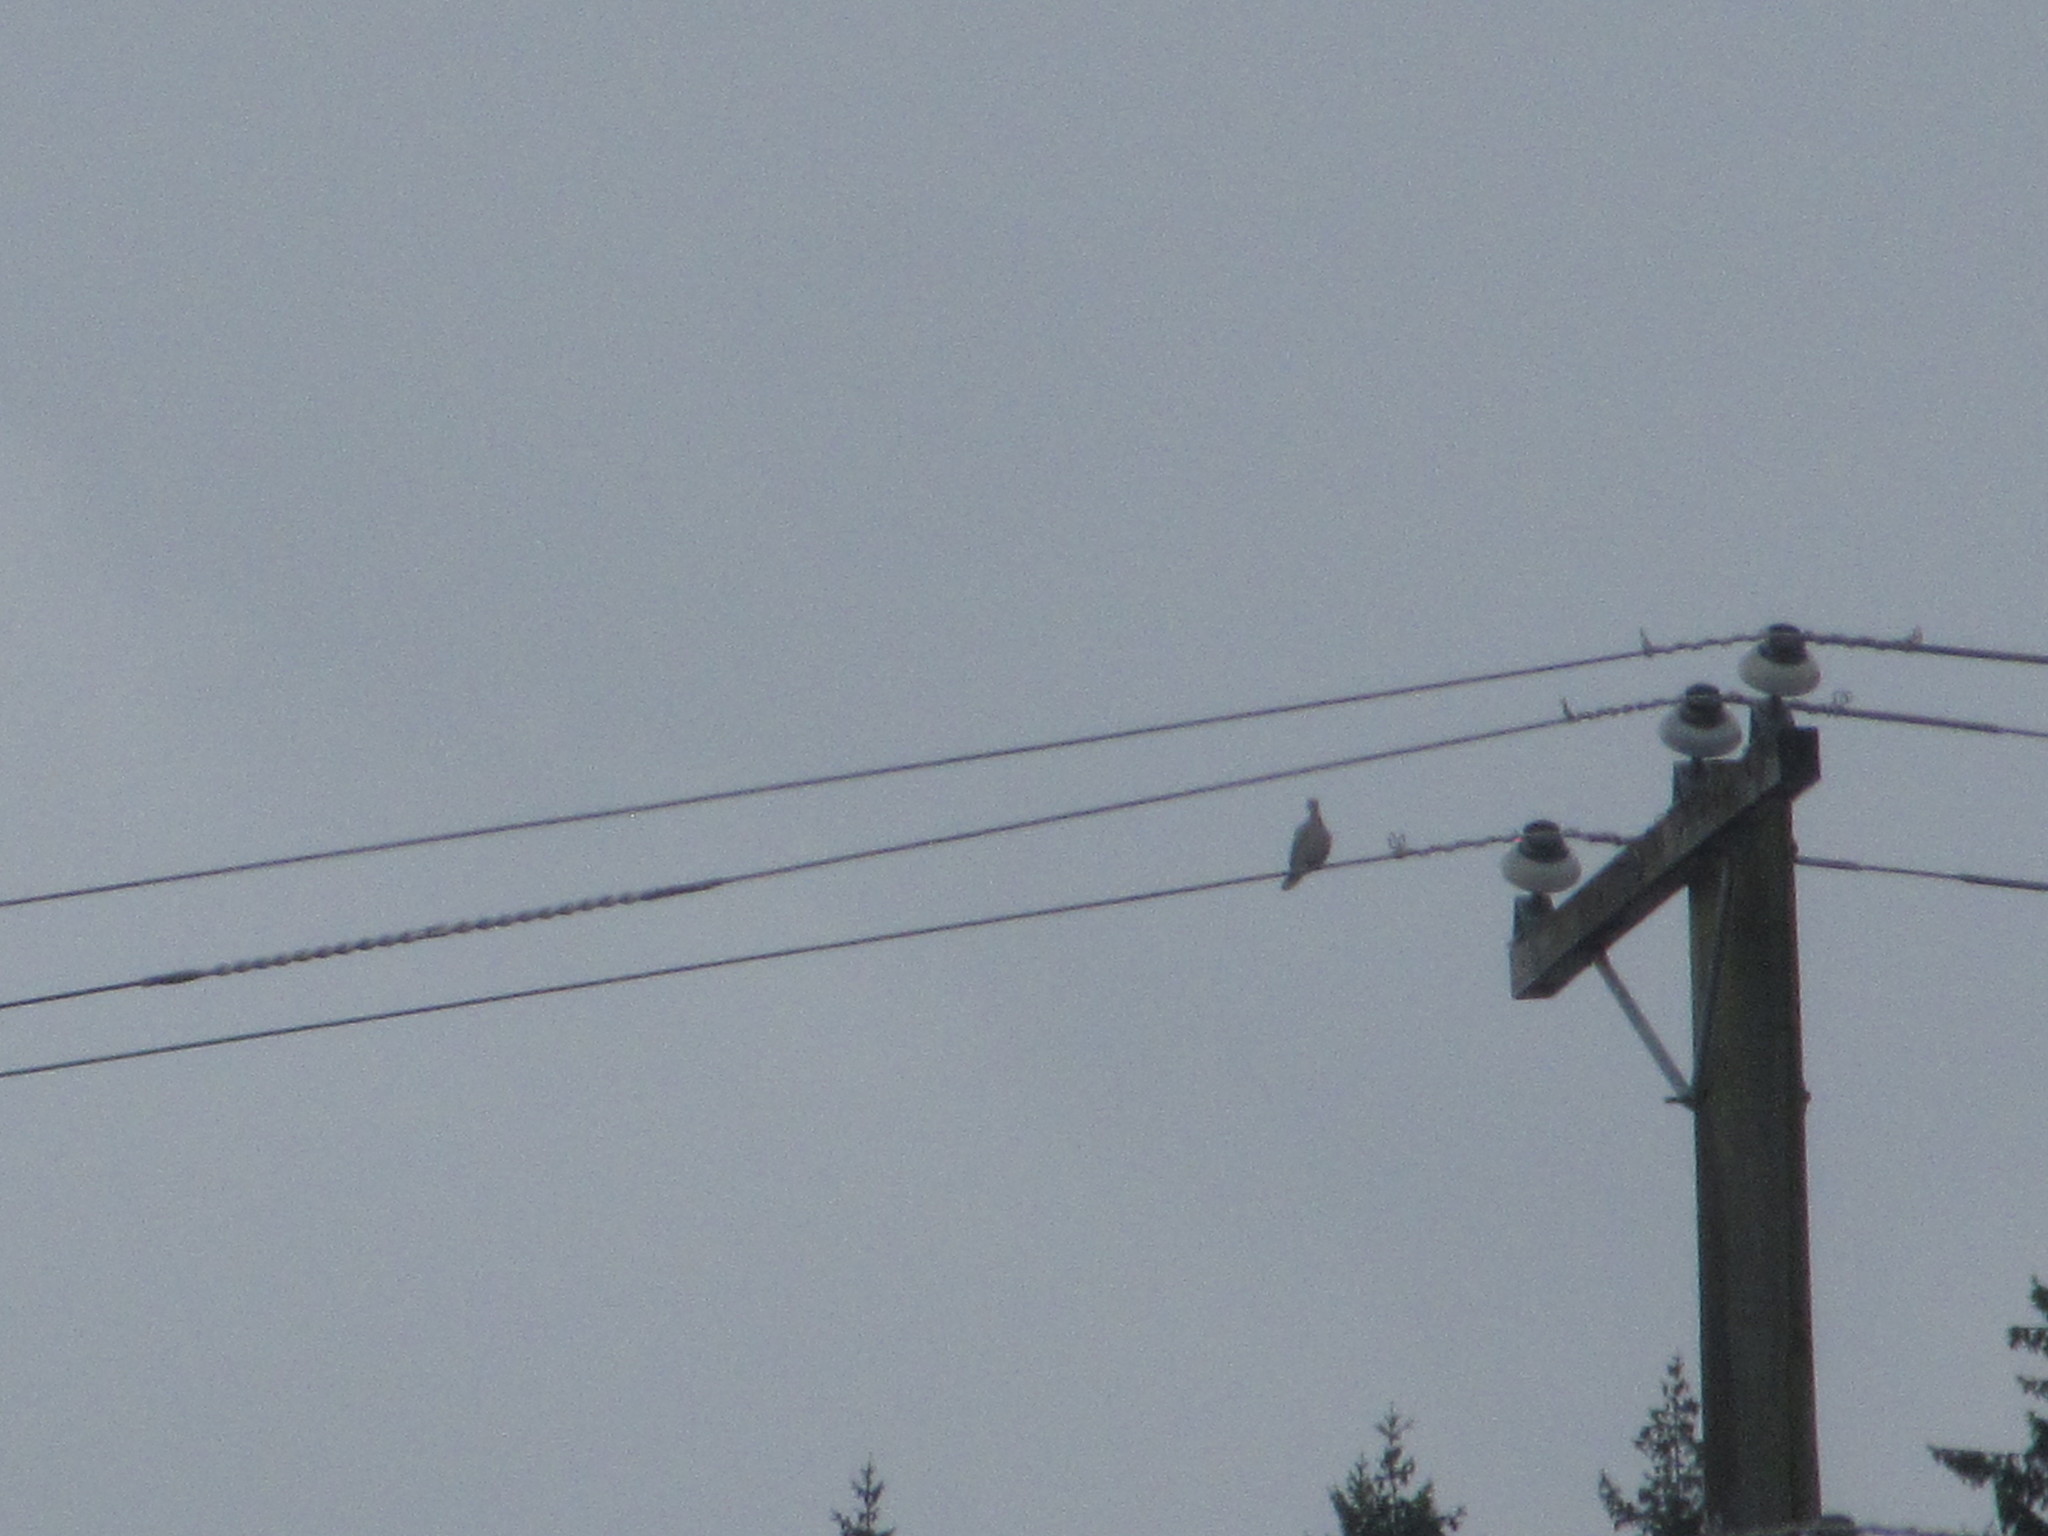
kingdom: Animalia
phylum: Chordata
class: Aves
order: Columbiformes
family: Columbidae
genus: Streptopelia
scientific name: Streptopelia decaocto
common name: Eurasian collared dove
